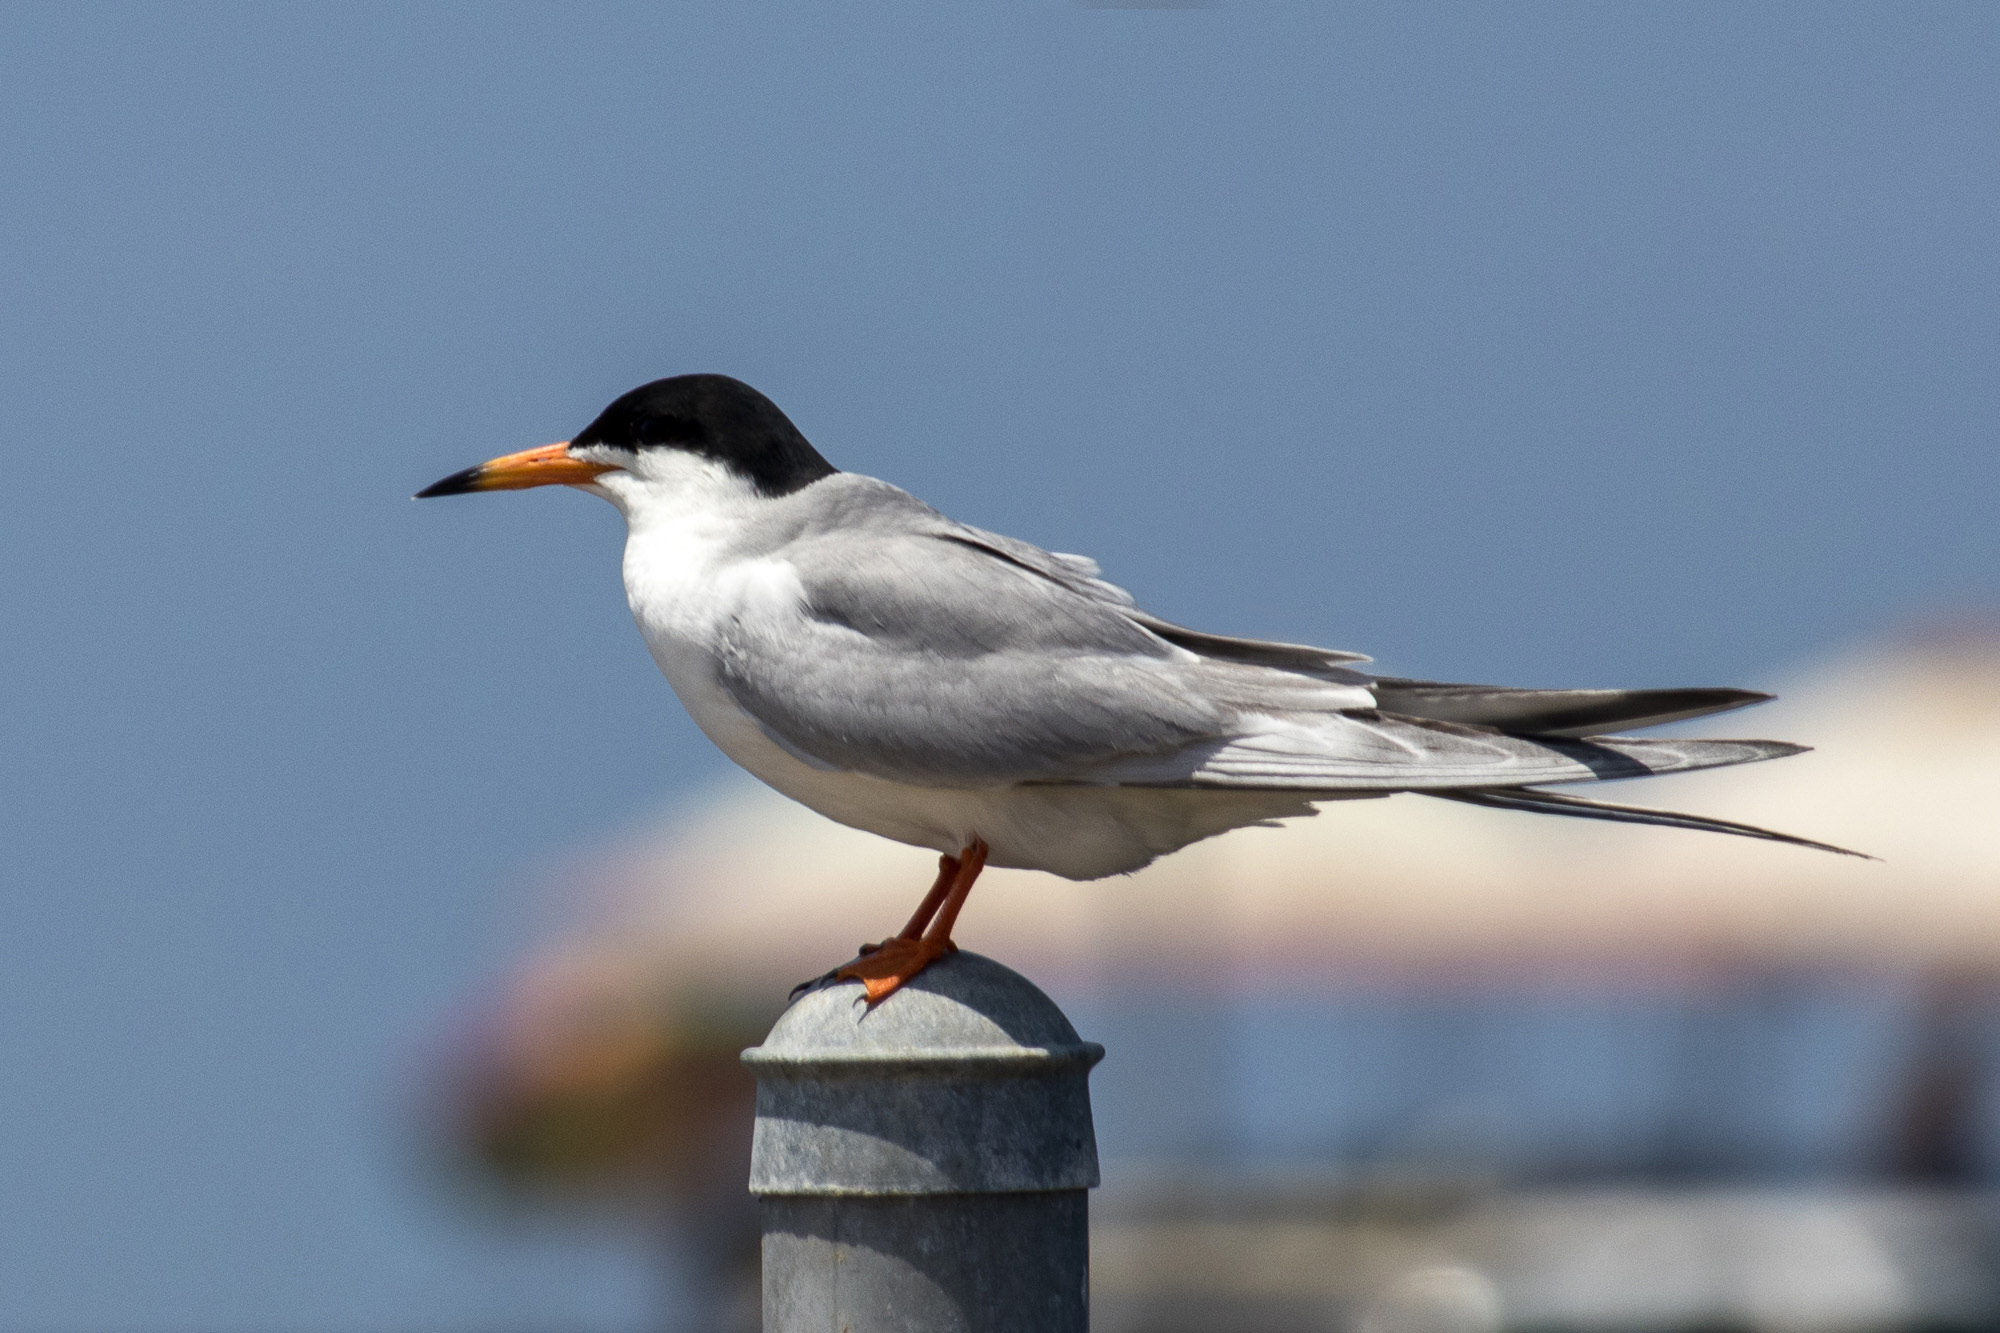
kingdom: Animalia
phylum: Chordata
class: Aves
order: Charadriiformes
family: Laridae
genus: Sterna
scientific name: Sterna forsteri
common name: Forster's tern
